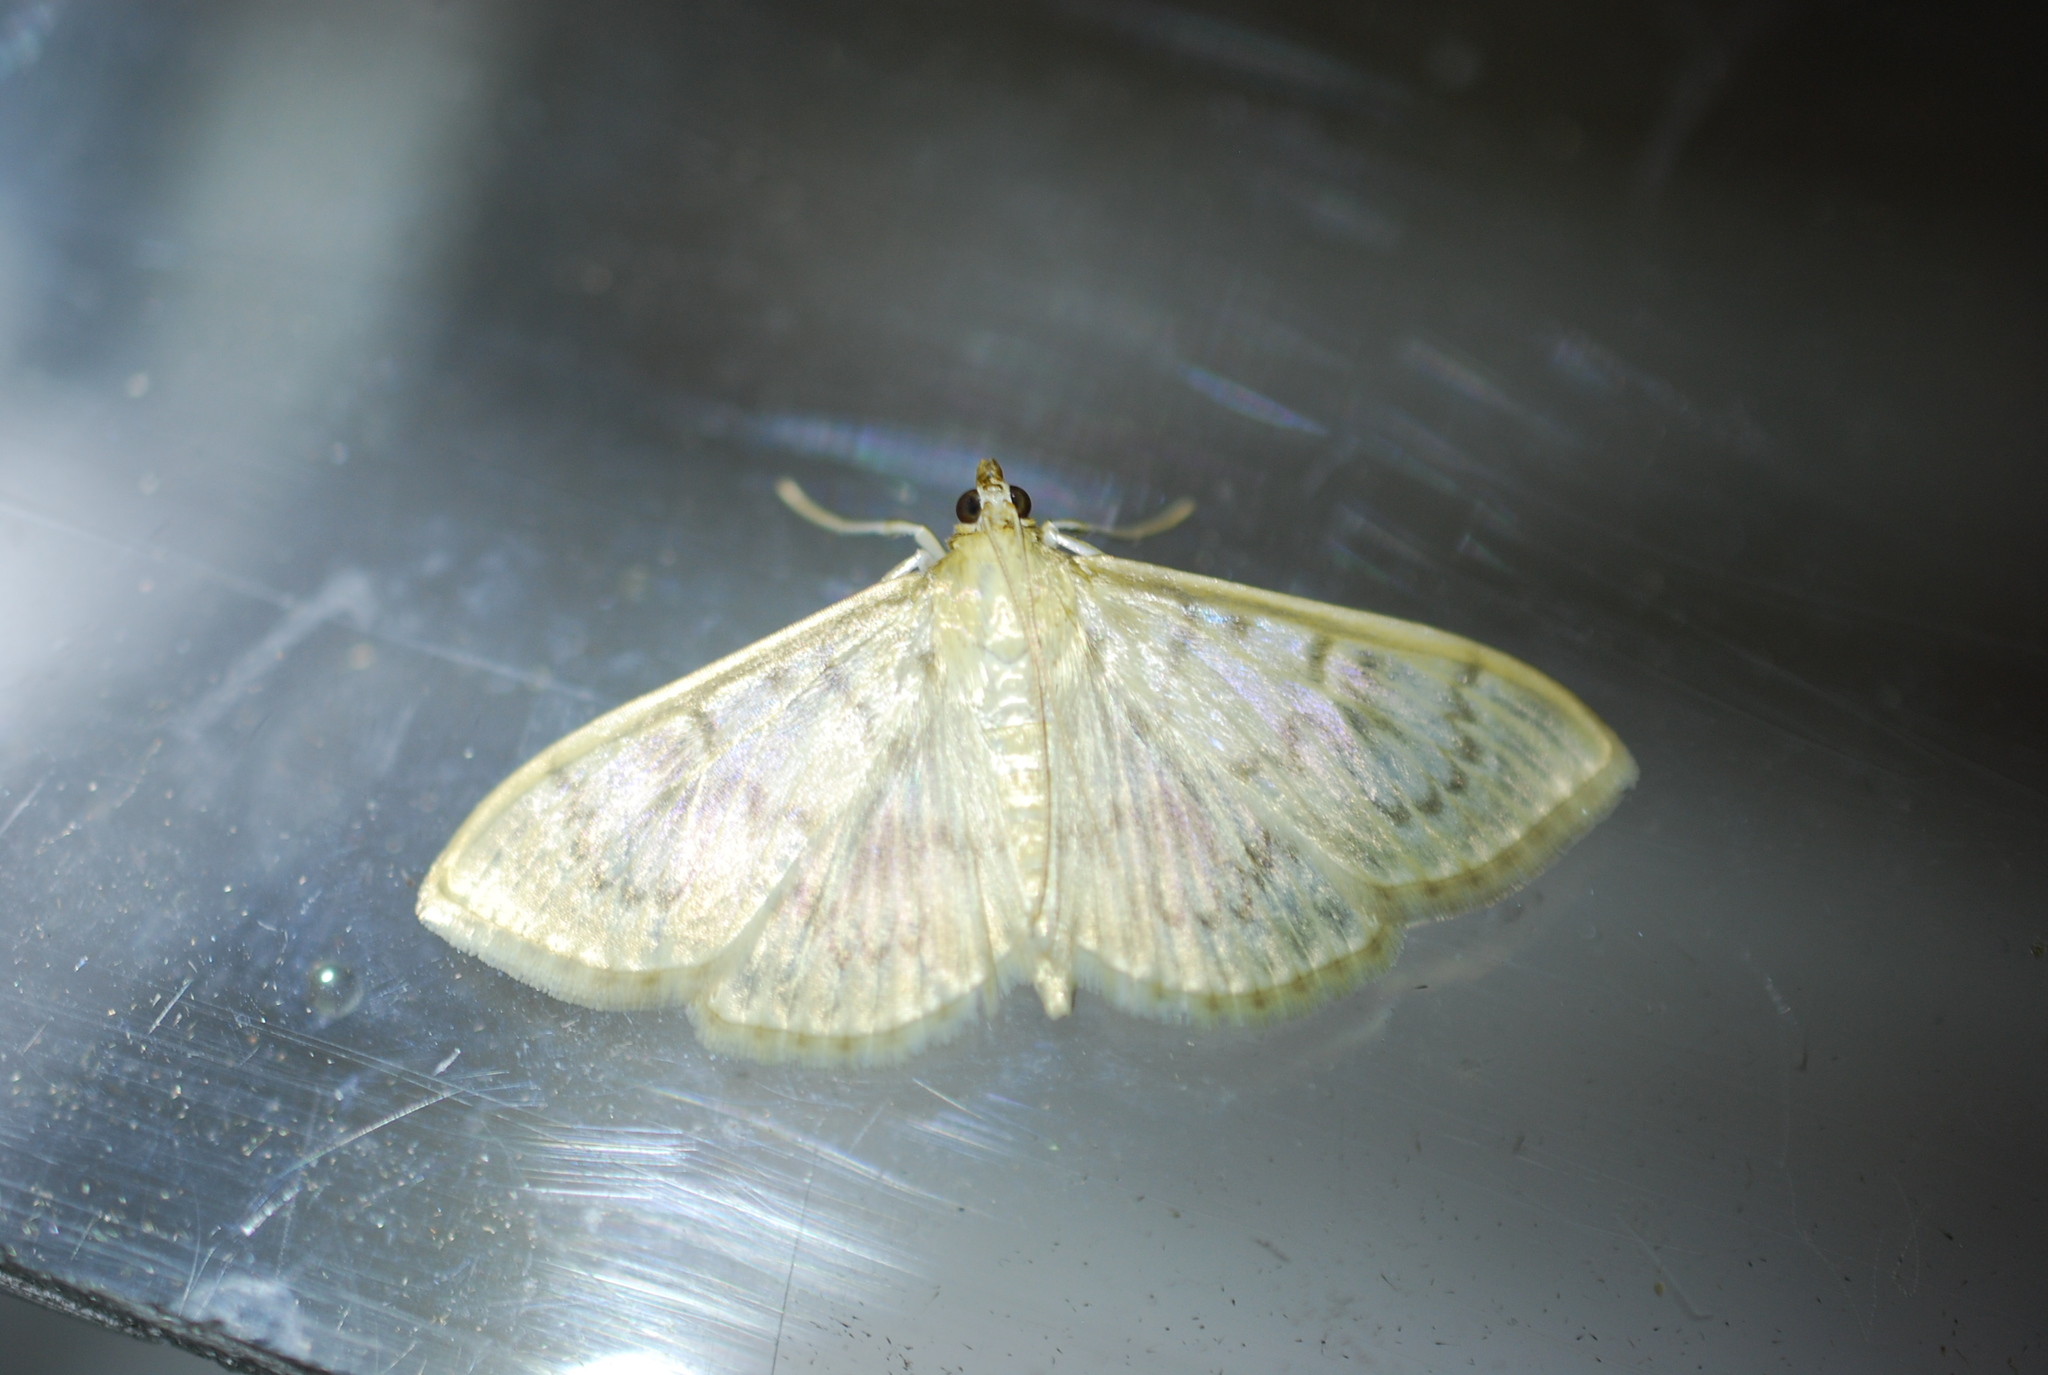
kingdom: Animalia
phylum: Arthropoda
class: Insecta
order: Lepidoptera
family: Crambidae
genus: Patania
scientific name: Patania ruralis
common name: Mother of pearl
